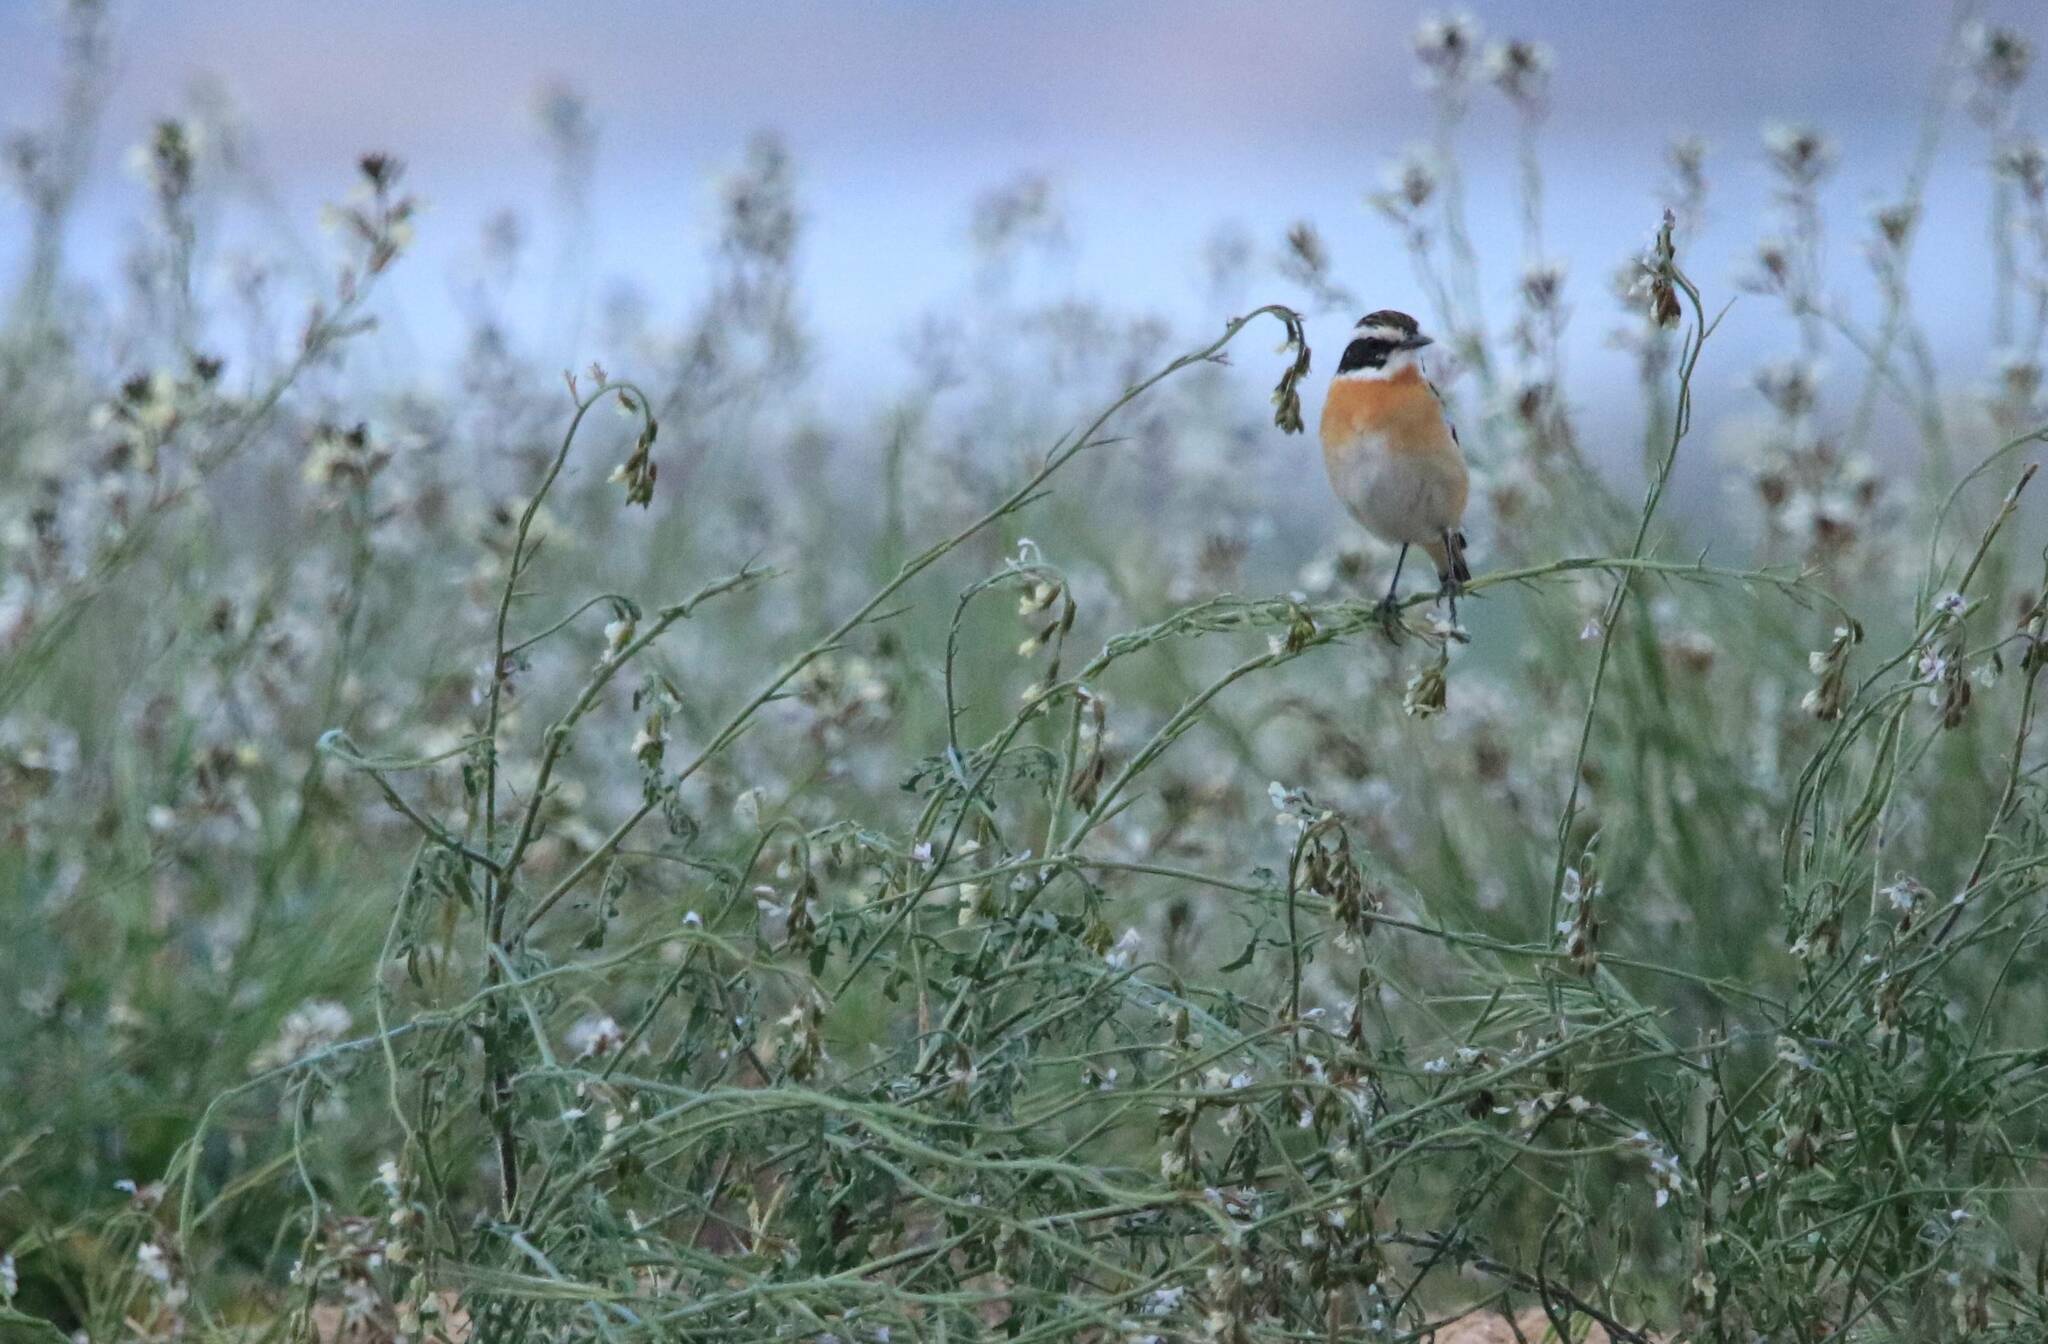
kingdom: Animalia
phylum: Chordata
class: Aves
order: Passeriformes
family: Muscicapidae
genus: Saxicola
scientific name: Saxicola rubetra
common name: Whinchat
